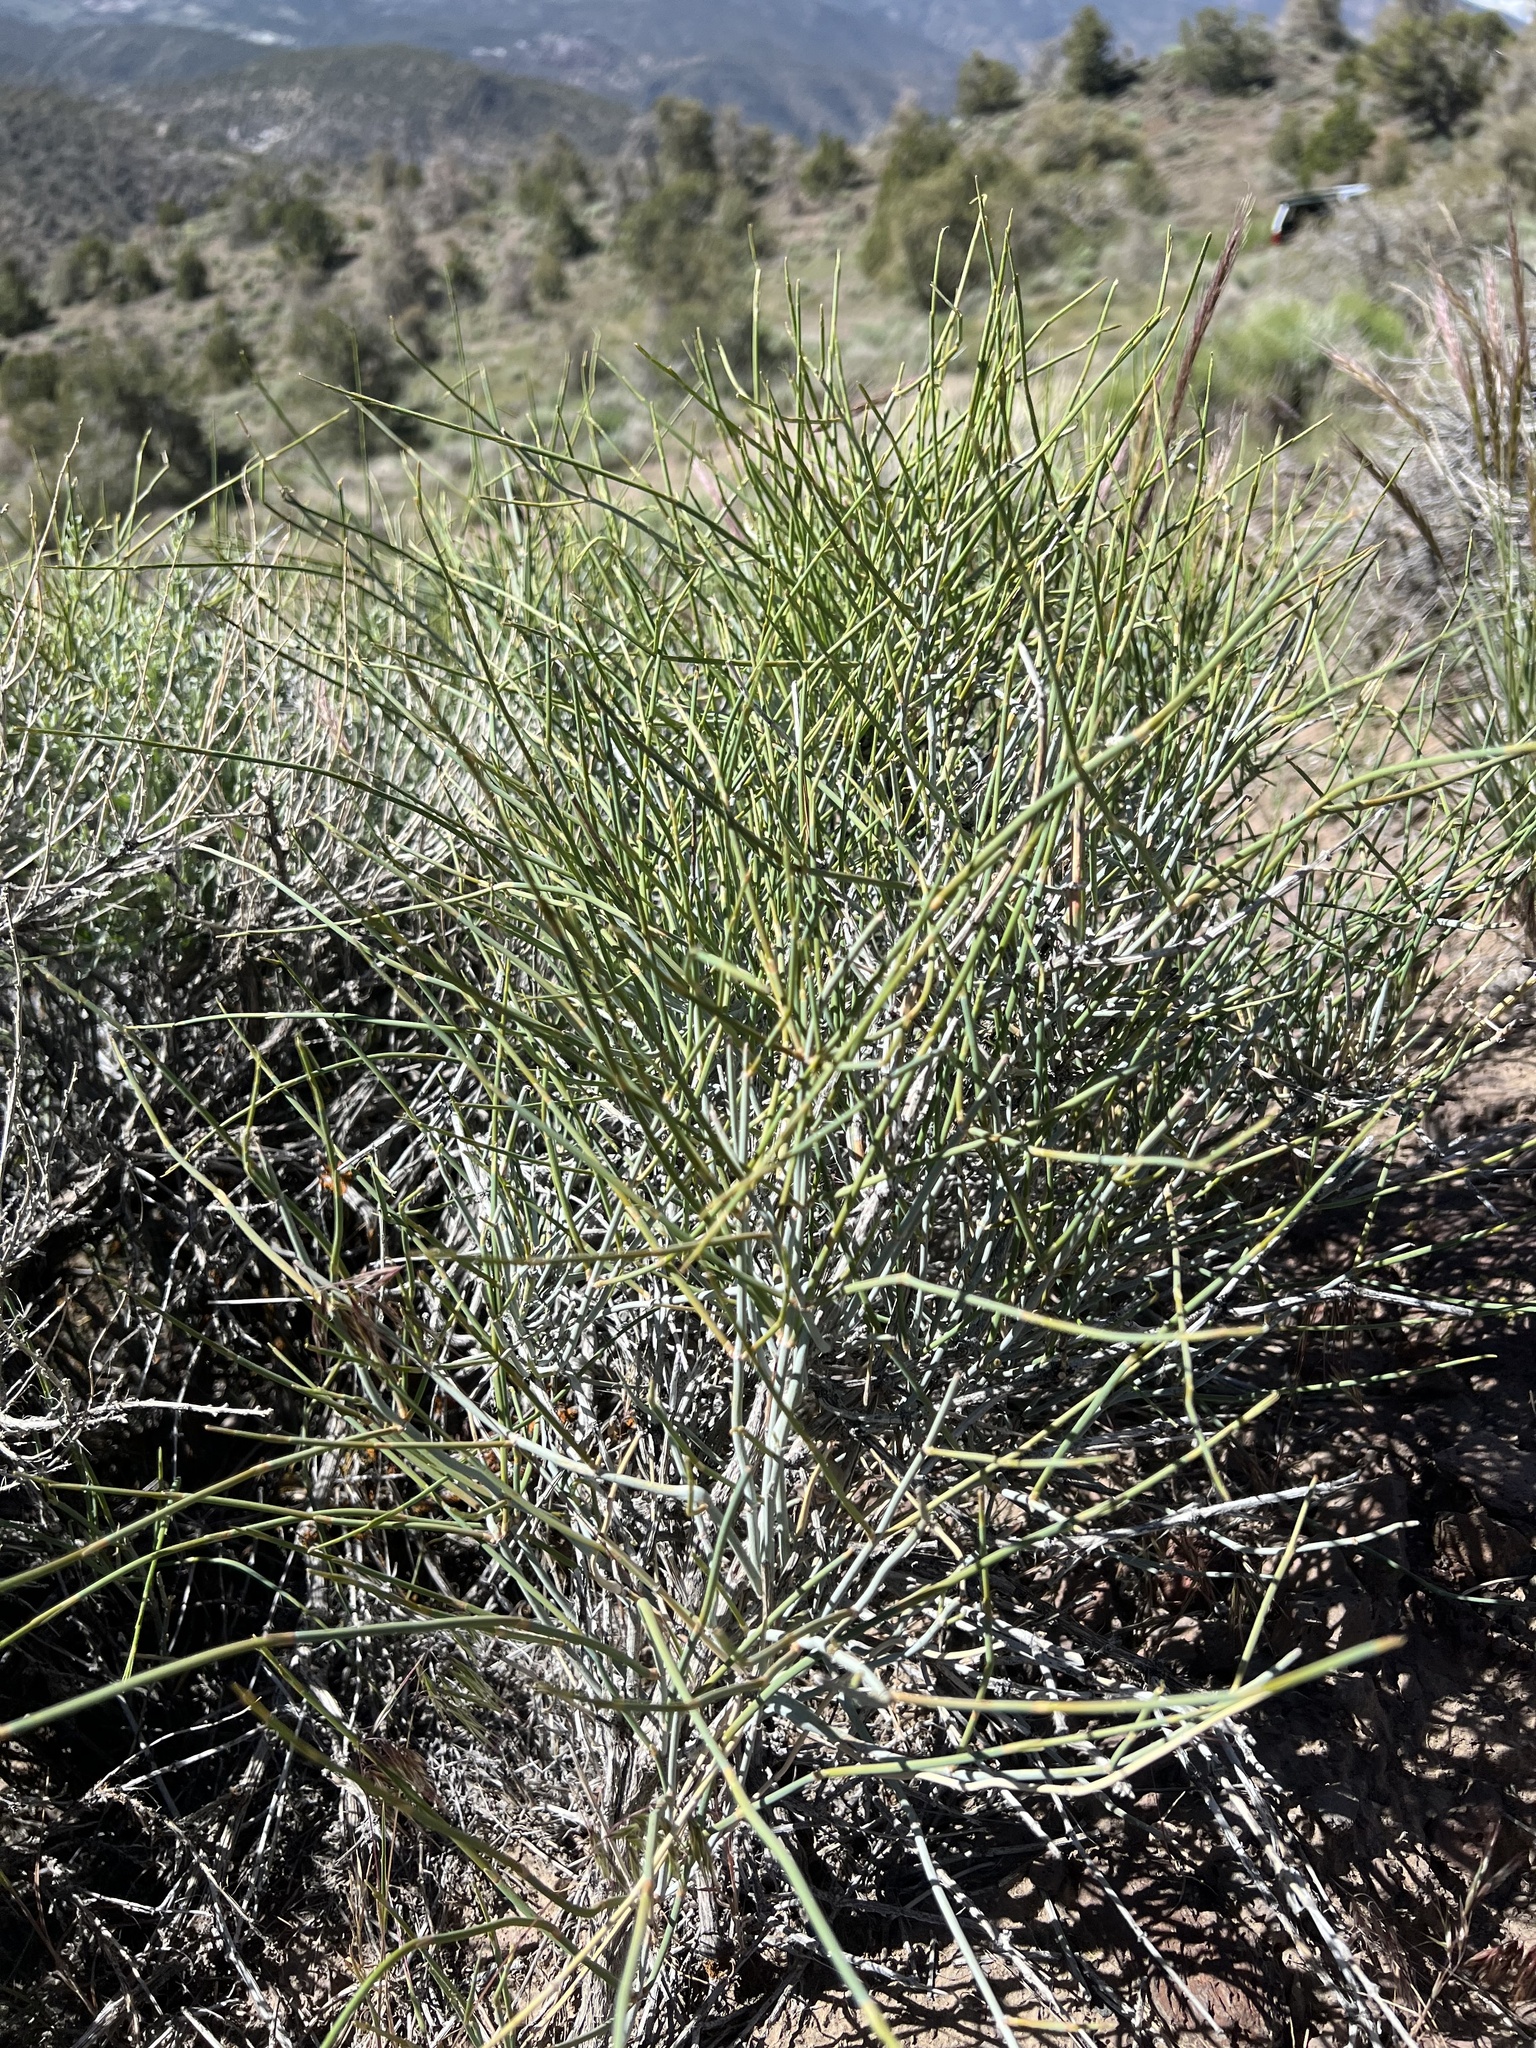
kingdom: Plantae
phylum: Tracheophyta
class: Gnetopsida
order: Ephedrales
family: Ephedraceae
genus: Ephedra
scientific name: Ephedra nevadensis
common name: Gray ephedra
